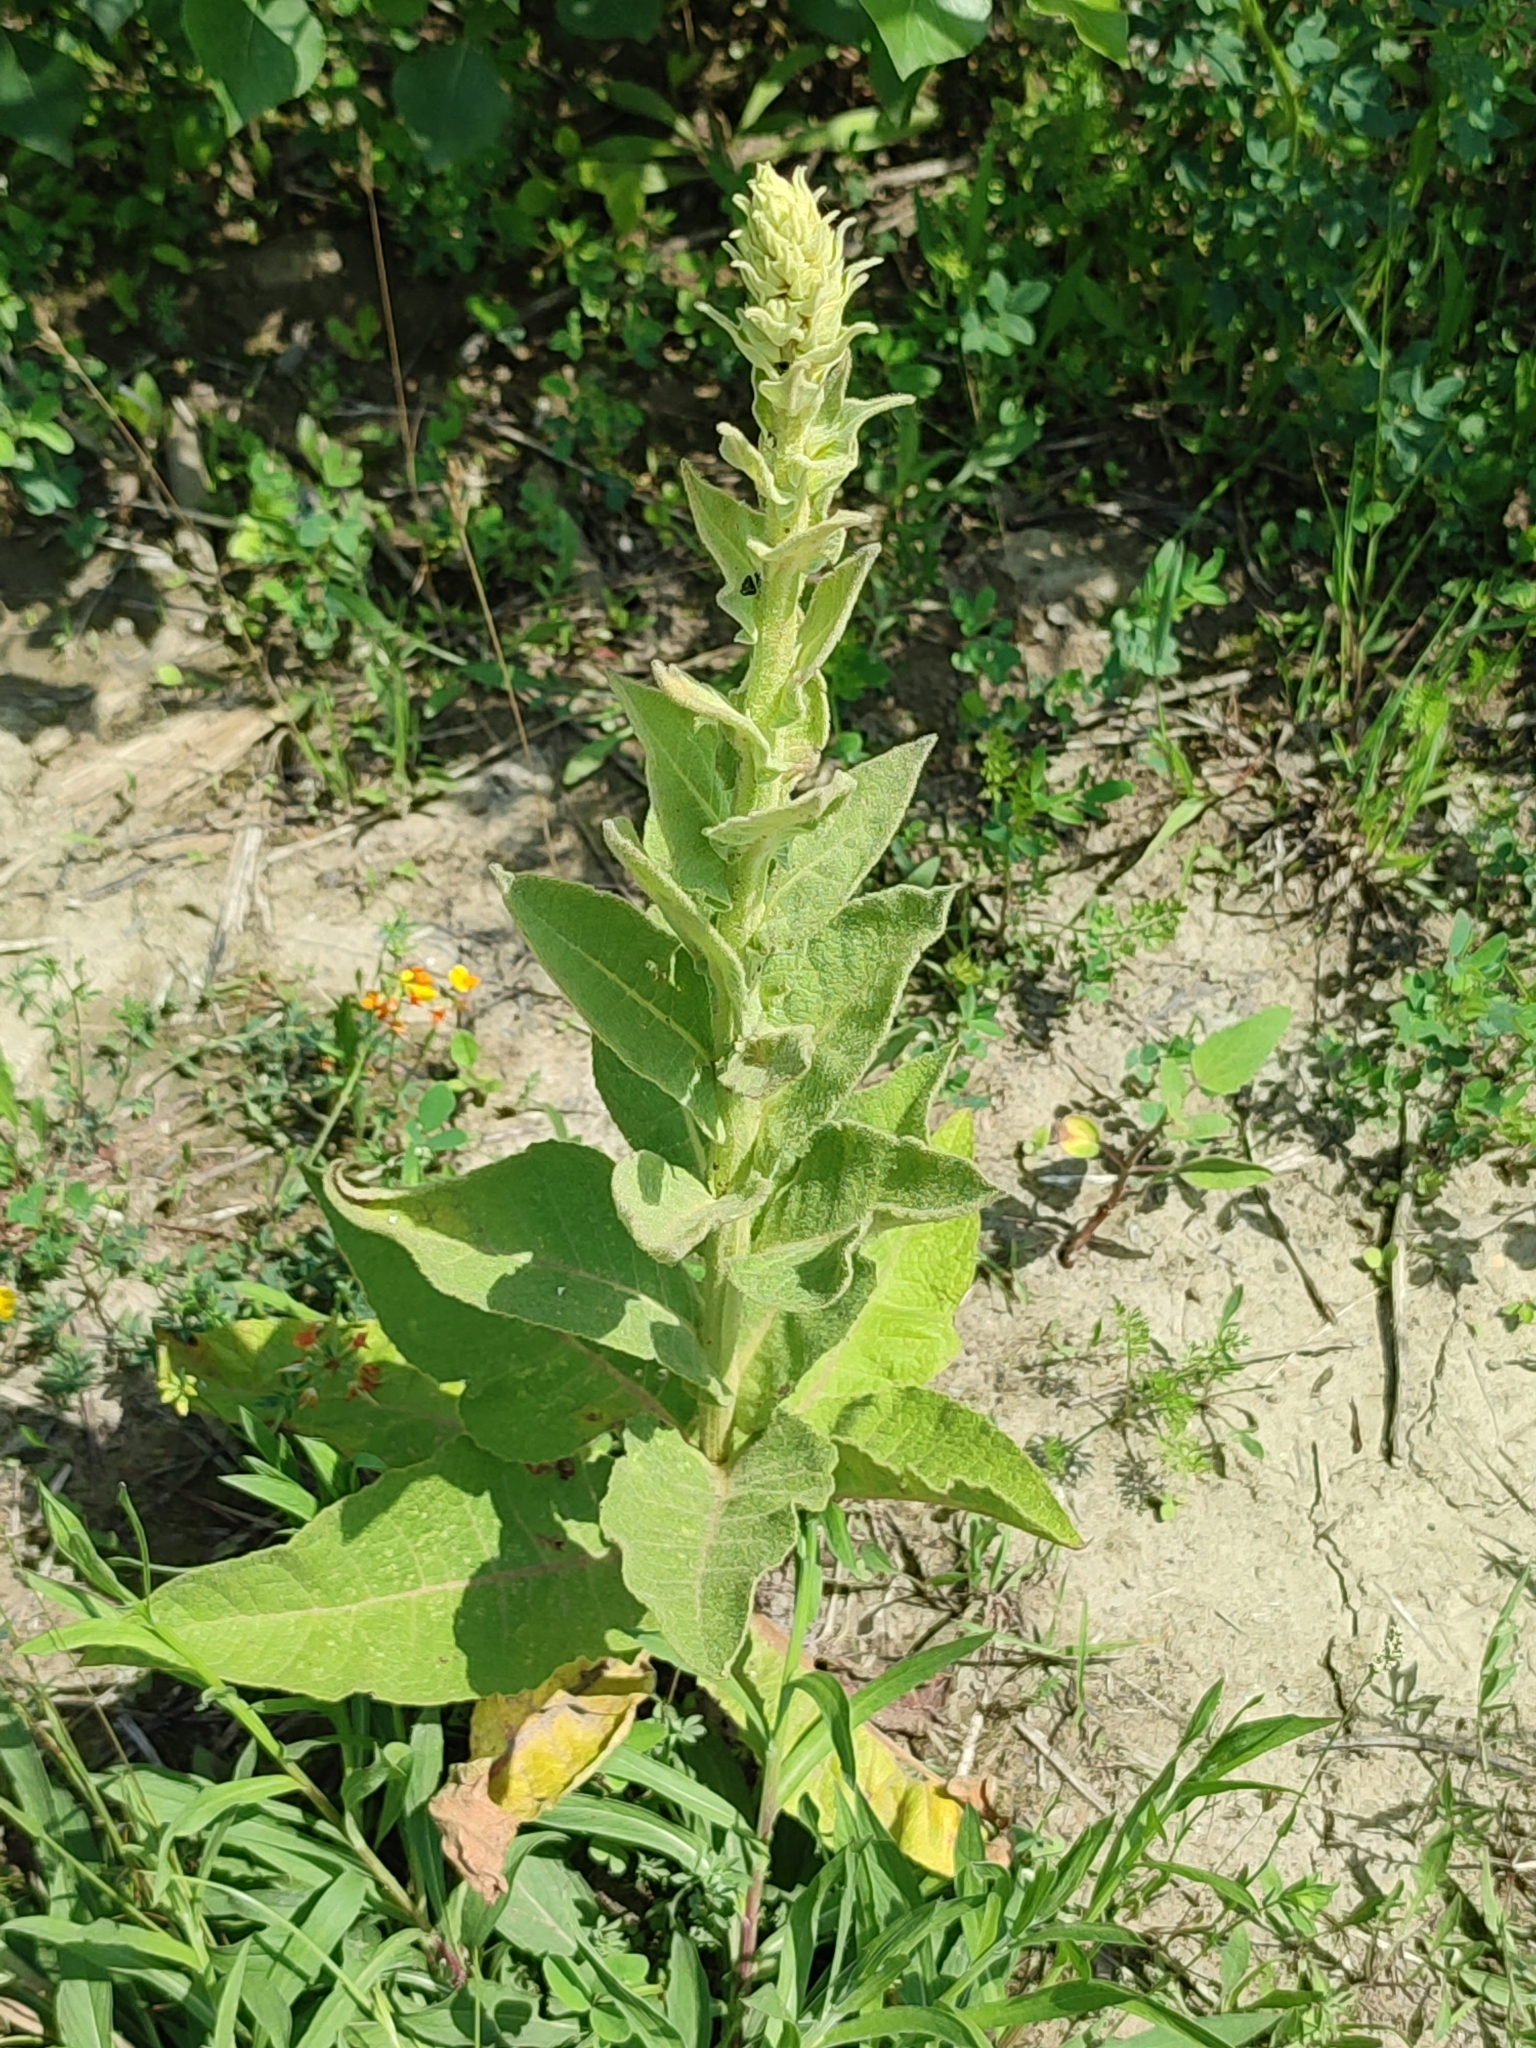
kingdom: Plantae
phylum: Tracheophyta
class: Magnoliopsida
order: Lamiales
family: Scrophulariaceae
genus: Verbascum
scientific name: Verbascum phlomoides
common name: Orange mullein
